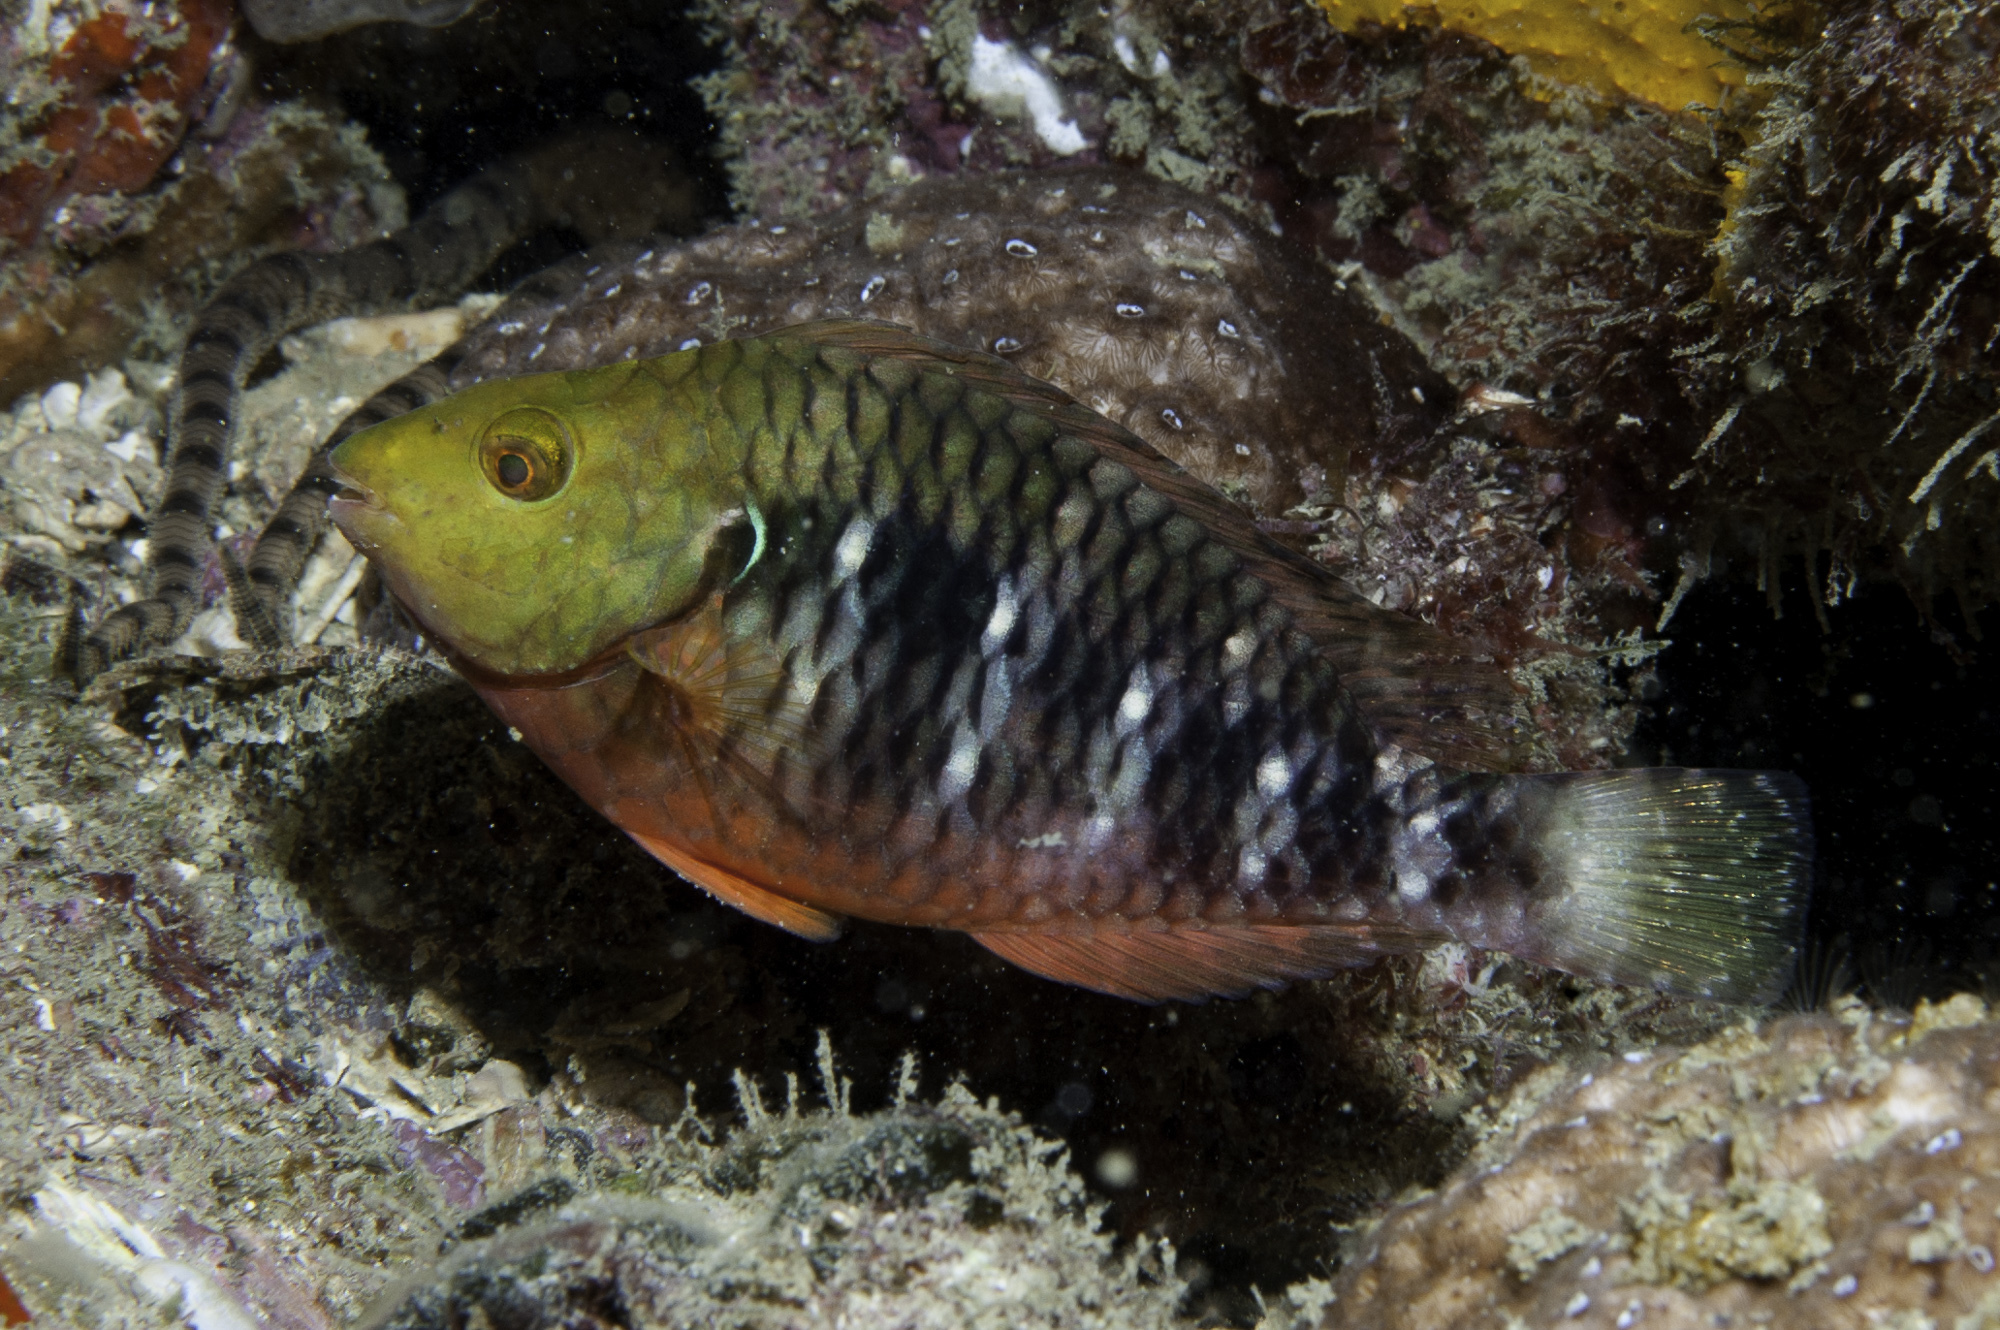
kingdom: Animalia
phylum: Chordata
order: Perciformes
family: Scaridae
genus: Sparisoma
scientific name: Sparisoma amplum
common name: Reef parrotfish
